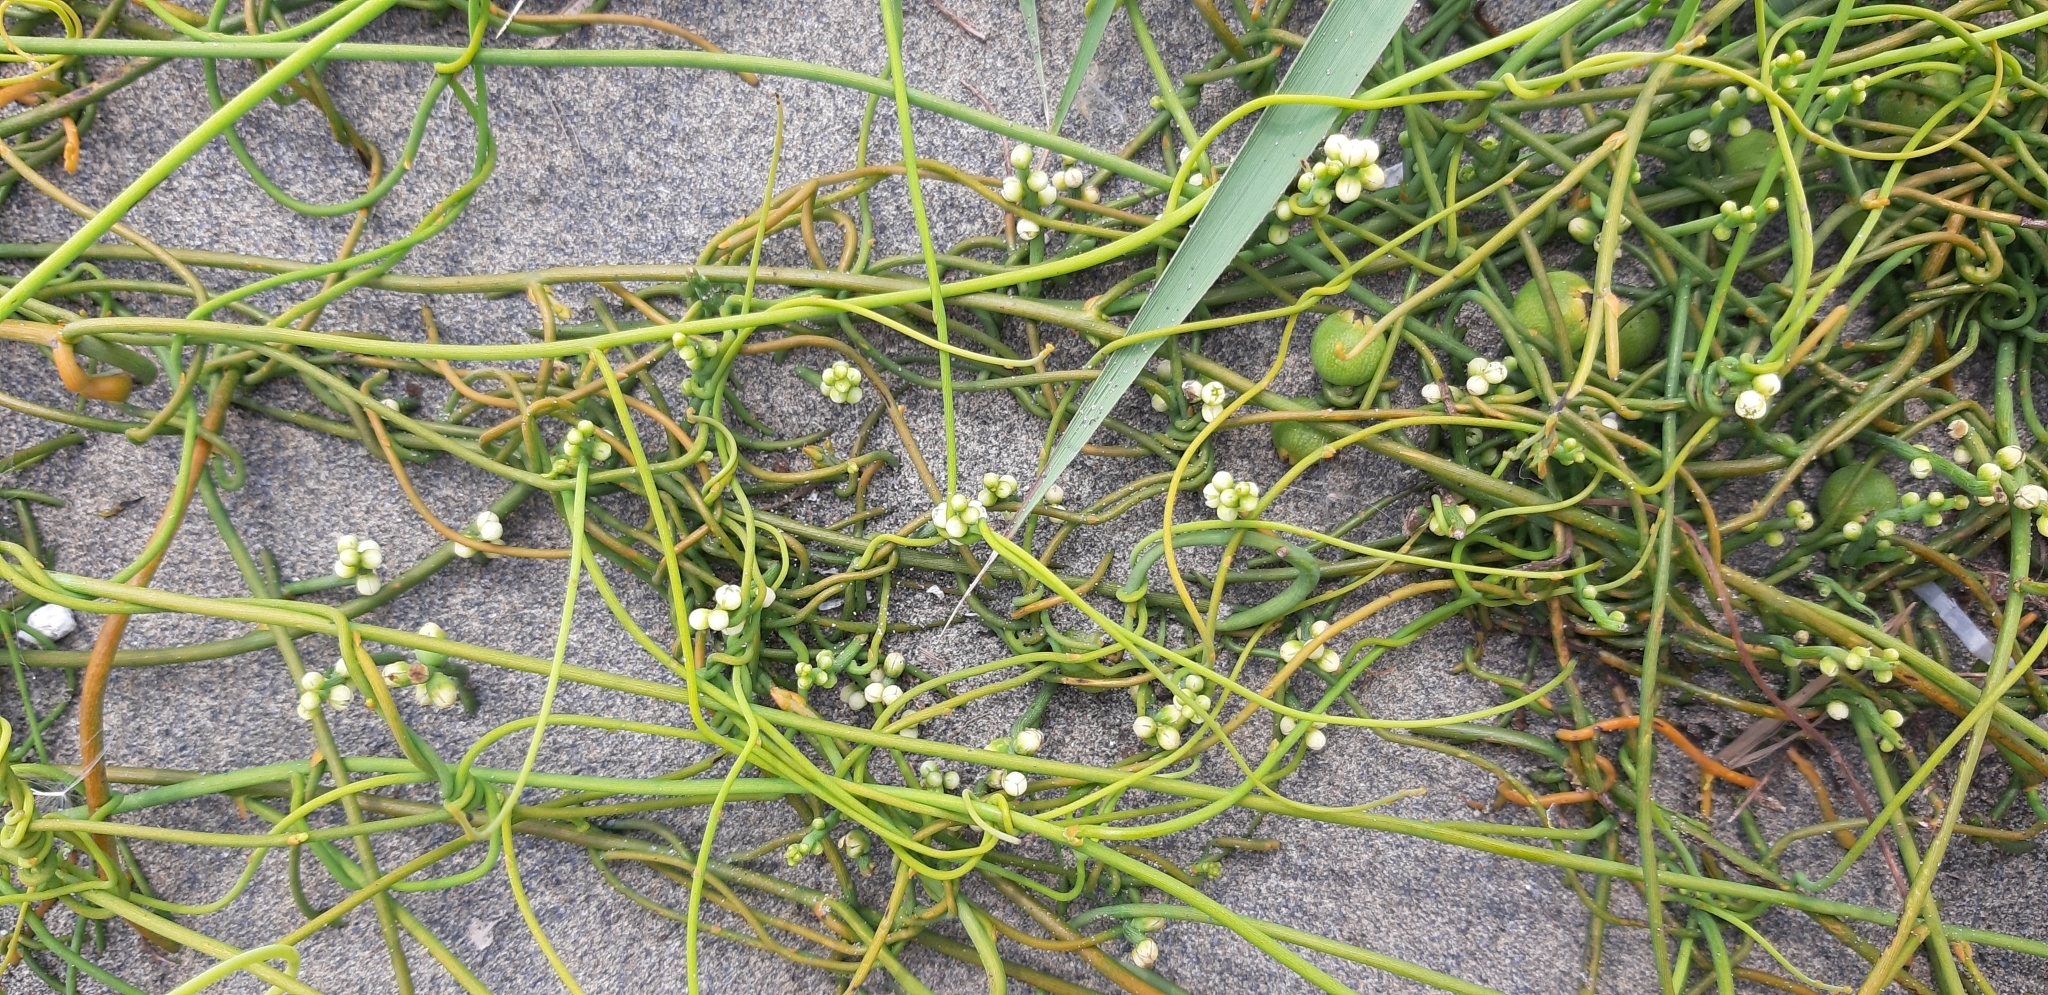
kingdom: Plantae
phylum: Tracheophyta
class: Magnoliopsida
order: Laurales
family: Lauraceae
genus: Cassytha
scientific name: Cassytha filiformis
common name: Dodder-laurel
